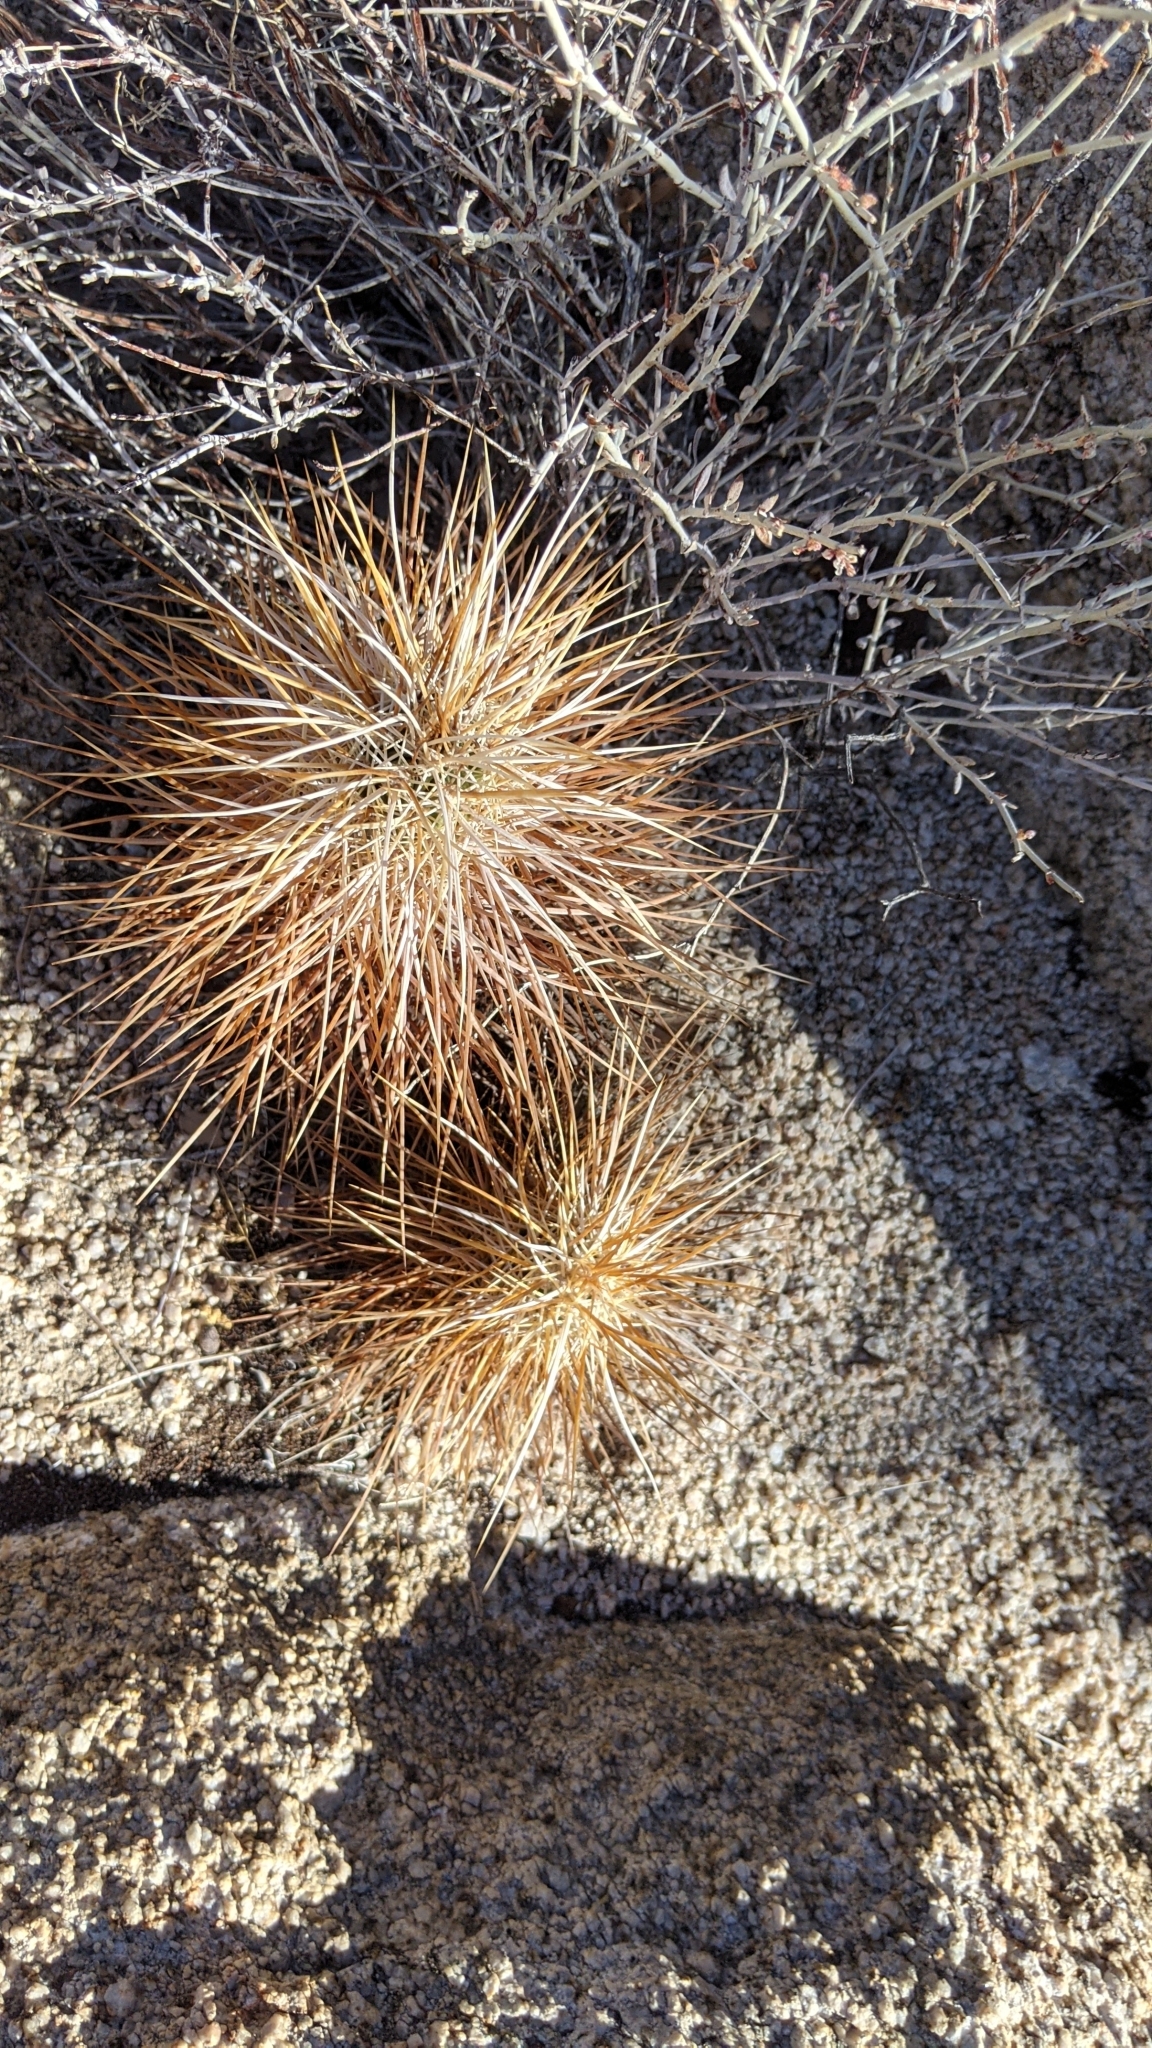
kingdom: Plantae
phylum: Tracheophyta
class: Magnoliopsida
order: Caryophyllales
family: Cactaceae
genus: Echinocereus
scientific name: Echinocereus engelmannii
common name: Engelmann's hedgehog cactus
